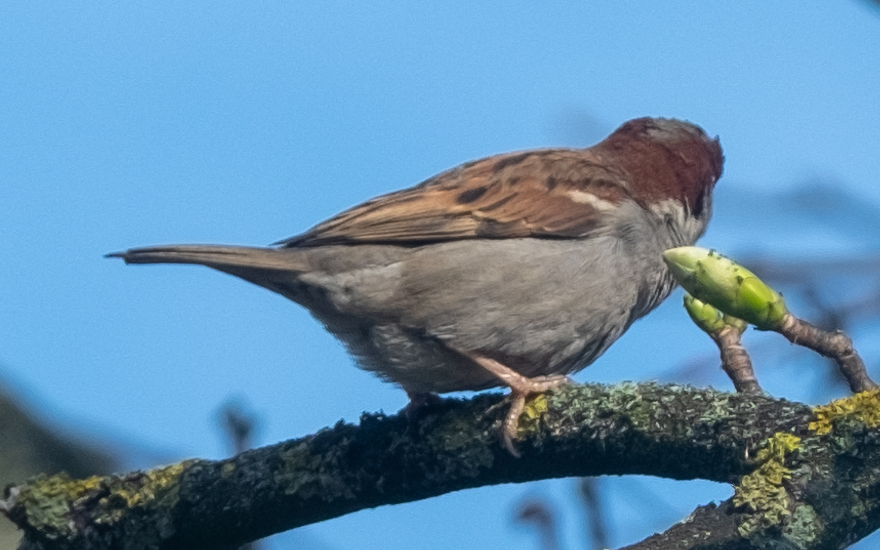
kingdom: Animalia
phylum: Chordata
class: Aves
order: Passeriformes
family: Passeridae
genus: Passer
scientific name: Passer domesticus
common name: House sparrow
